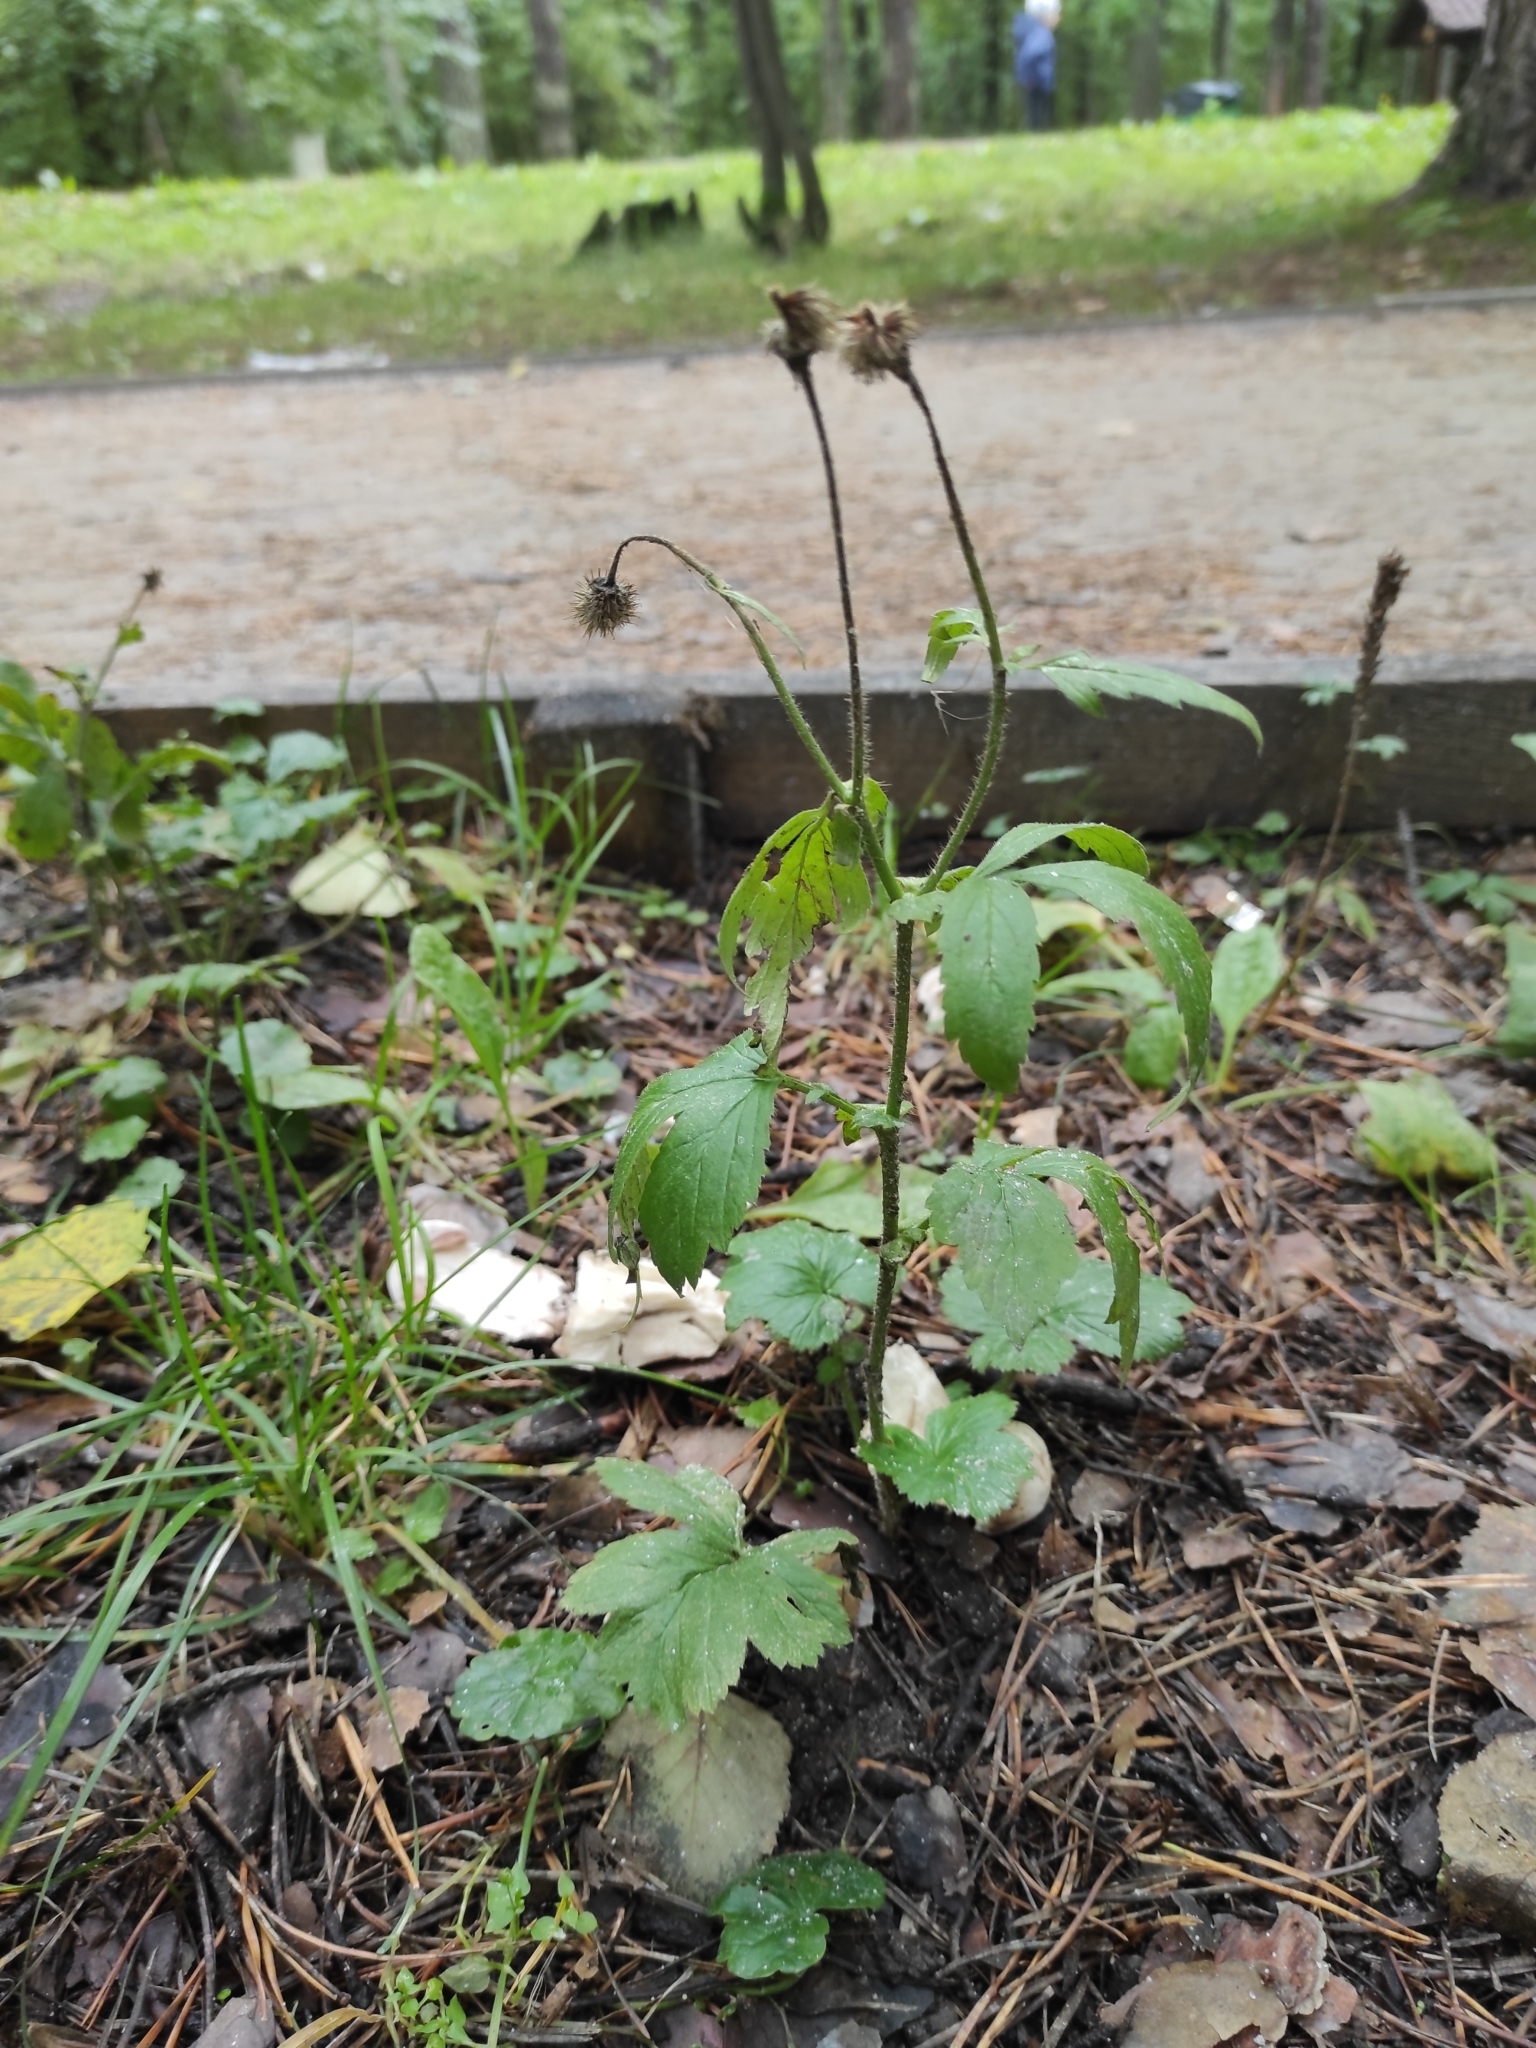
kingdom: Plantae
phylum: Tracheophyta
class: Magnoliopsida
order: Rosales
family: Rosaceae
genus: Geum
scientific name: Geum aleppicum
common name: Yellow avens
